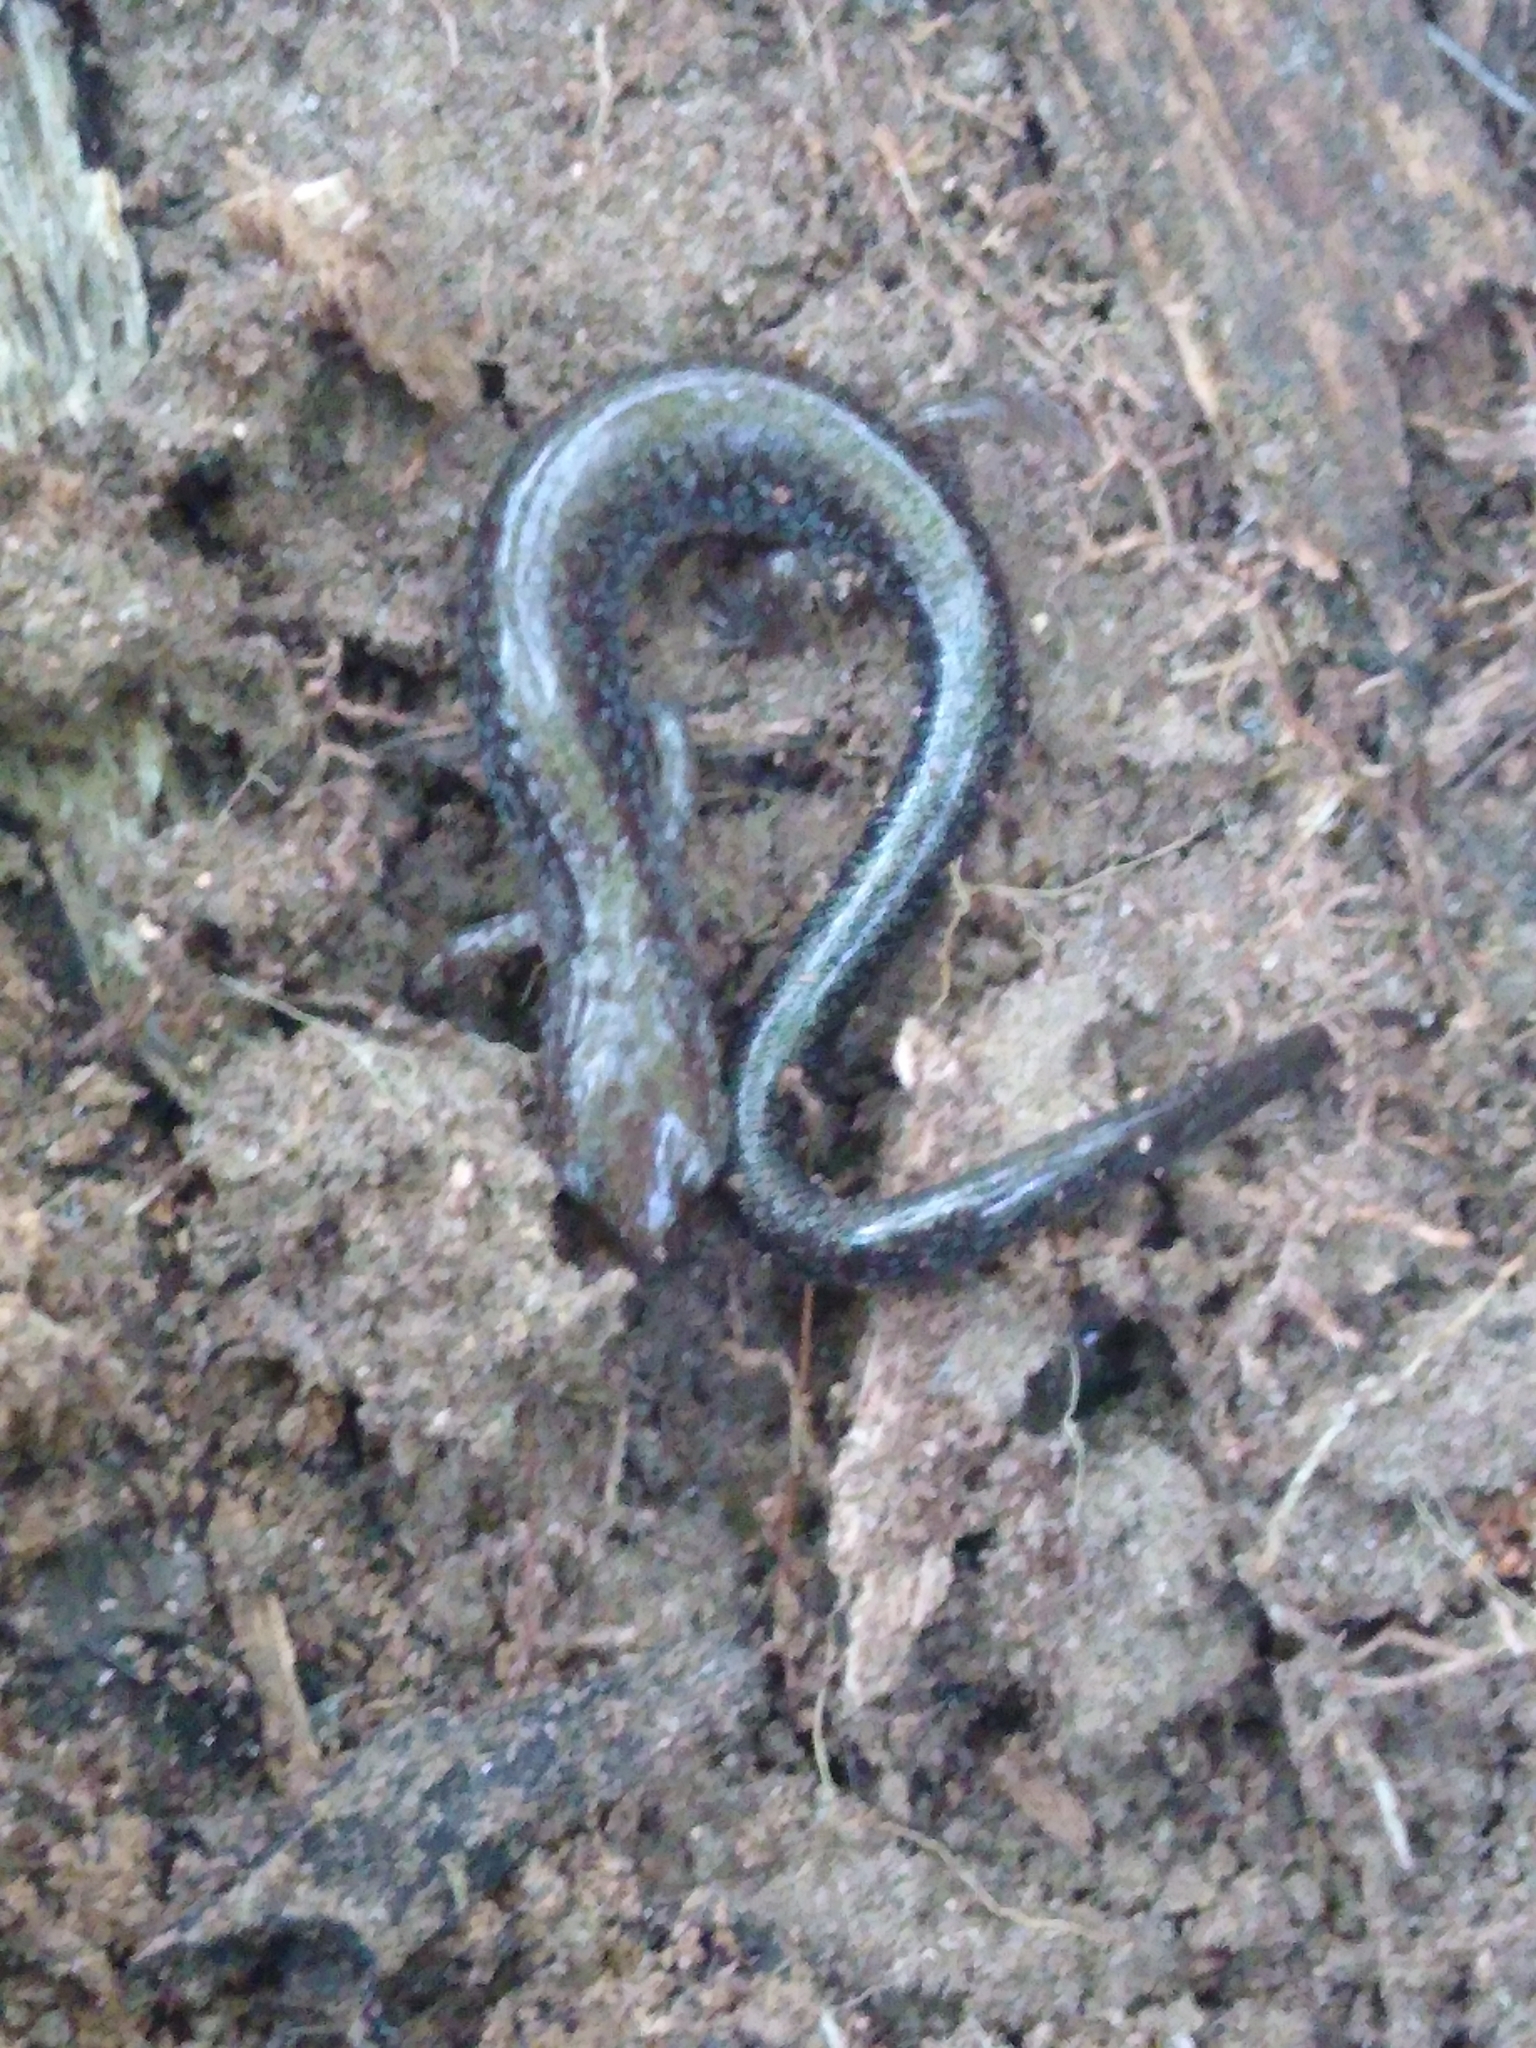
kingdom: Animalia
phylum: Chordata
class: Amphibia
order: Caudata
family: Plethodontidae
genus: Plethodon
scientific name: Plethodon cinereus
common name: Redback salamander
